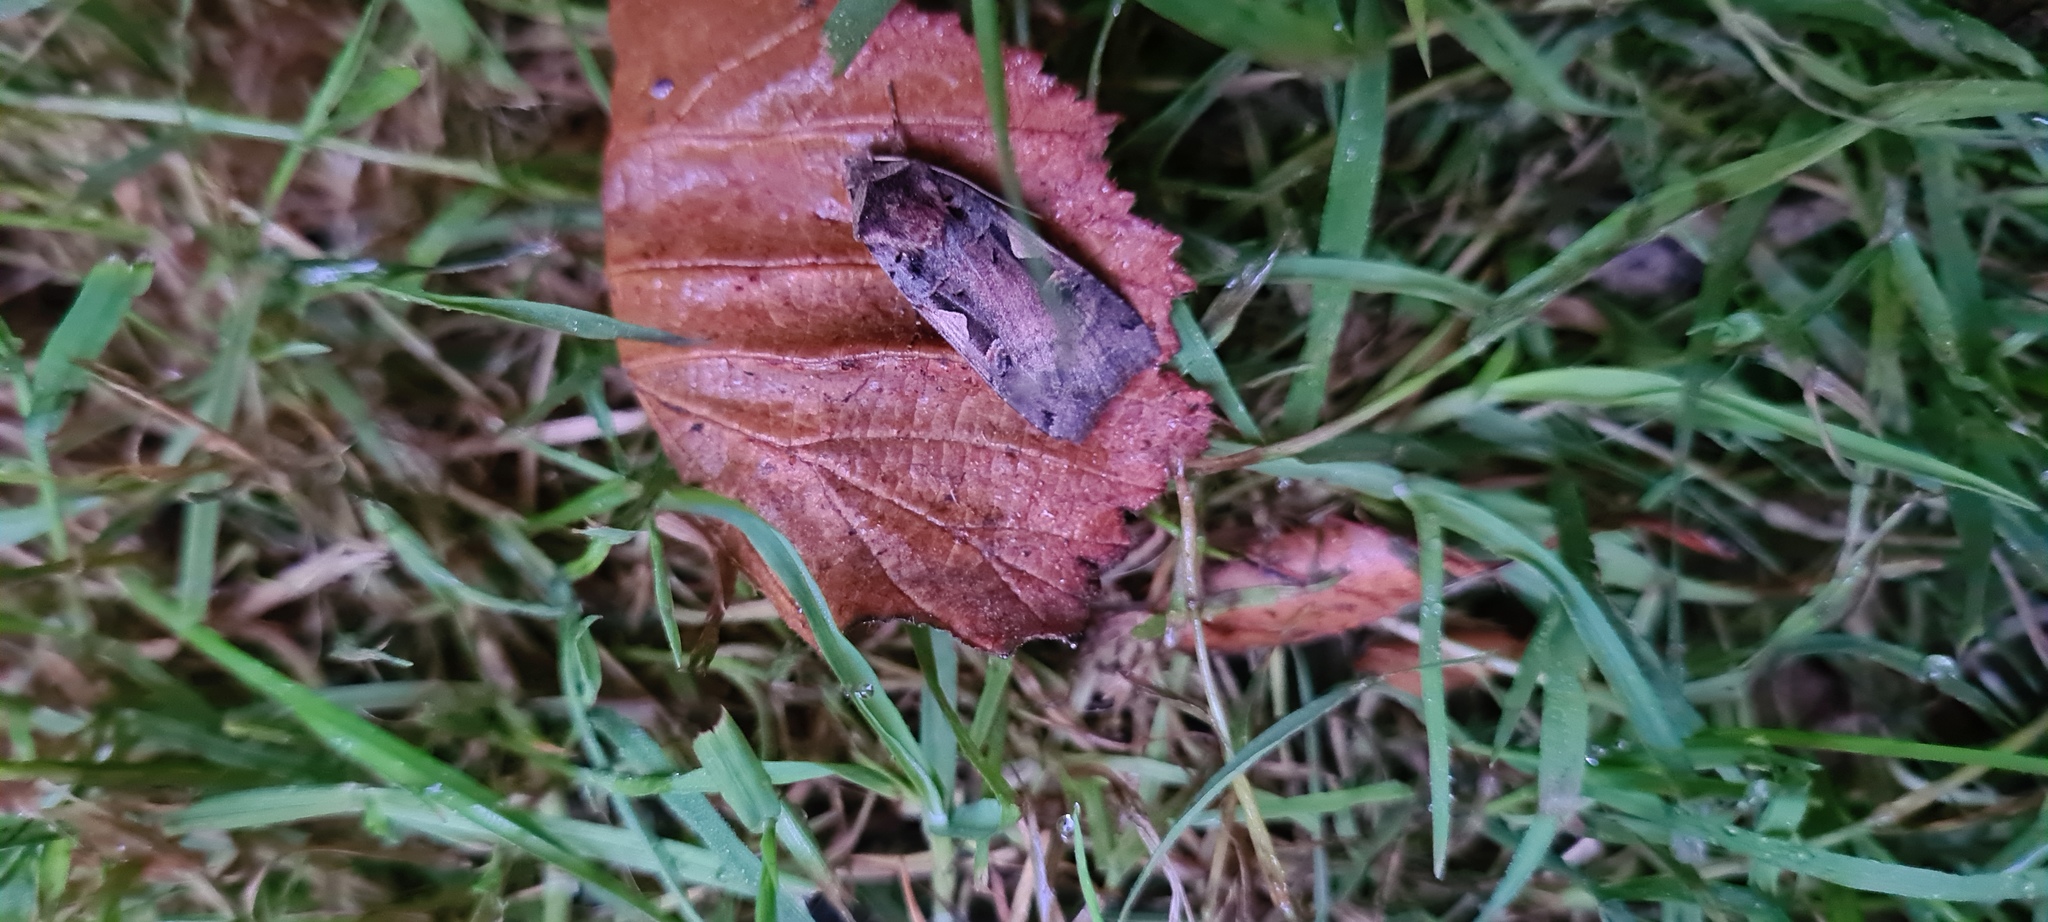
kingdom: Animalia
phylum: Arthropoda
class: Insecta
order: Lepidoptera
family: Noctuidae
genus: Xestia
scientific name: Xestia c-nigrum
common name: Setaceous hebrew character
